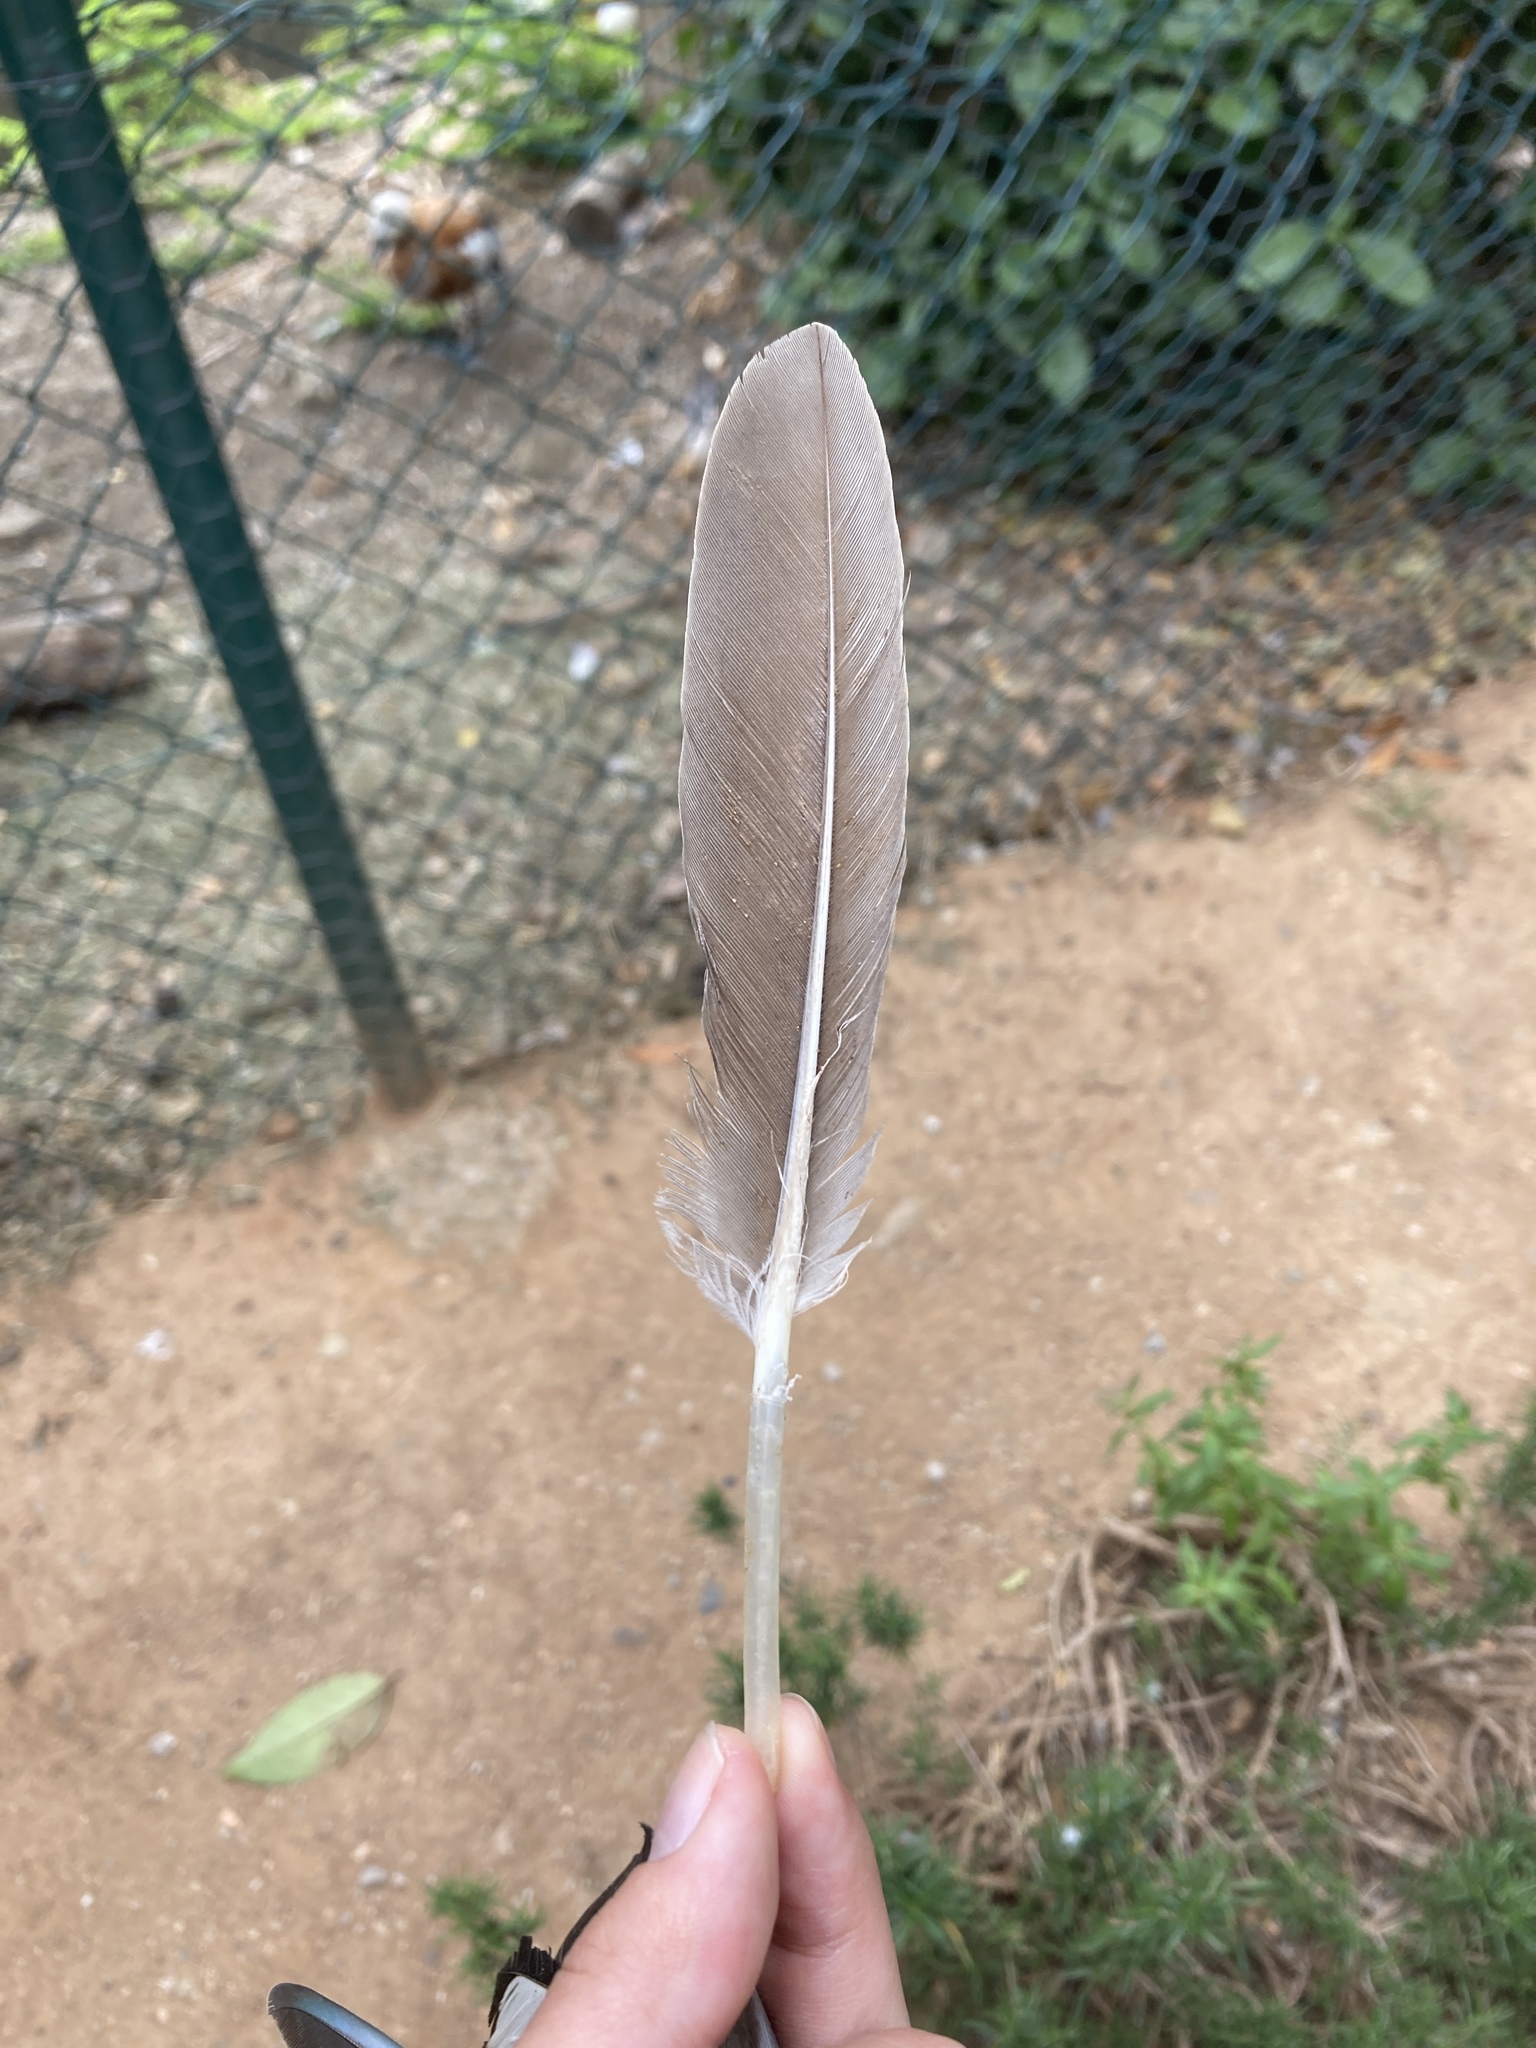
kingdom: Animalia
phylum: Chordata
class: Aves
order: Anseriformes
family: Anatidae
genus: Anser
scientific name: Anser anser
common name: Greylag goose
